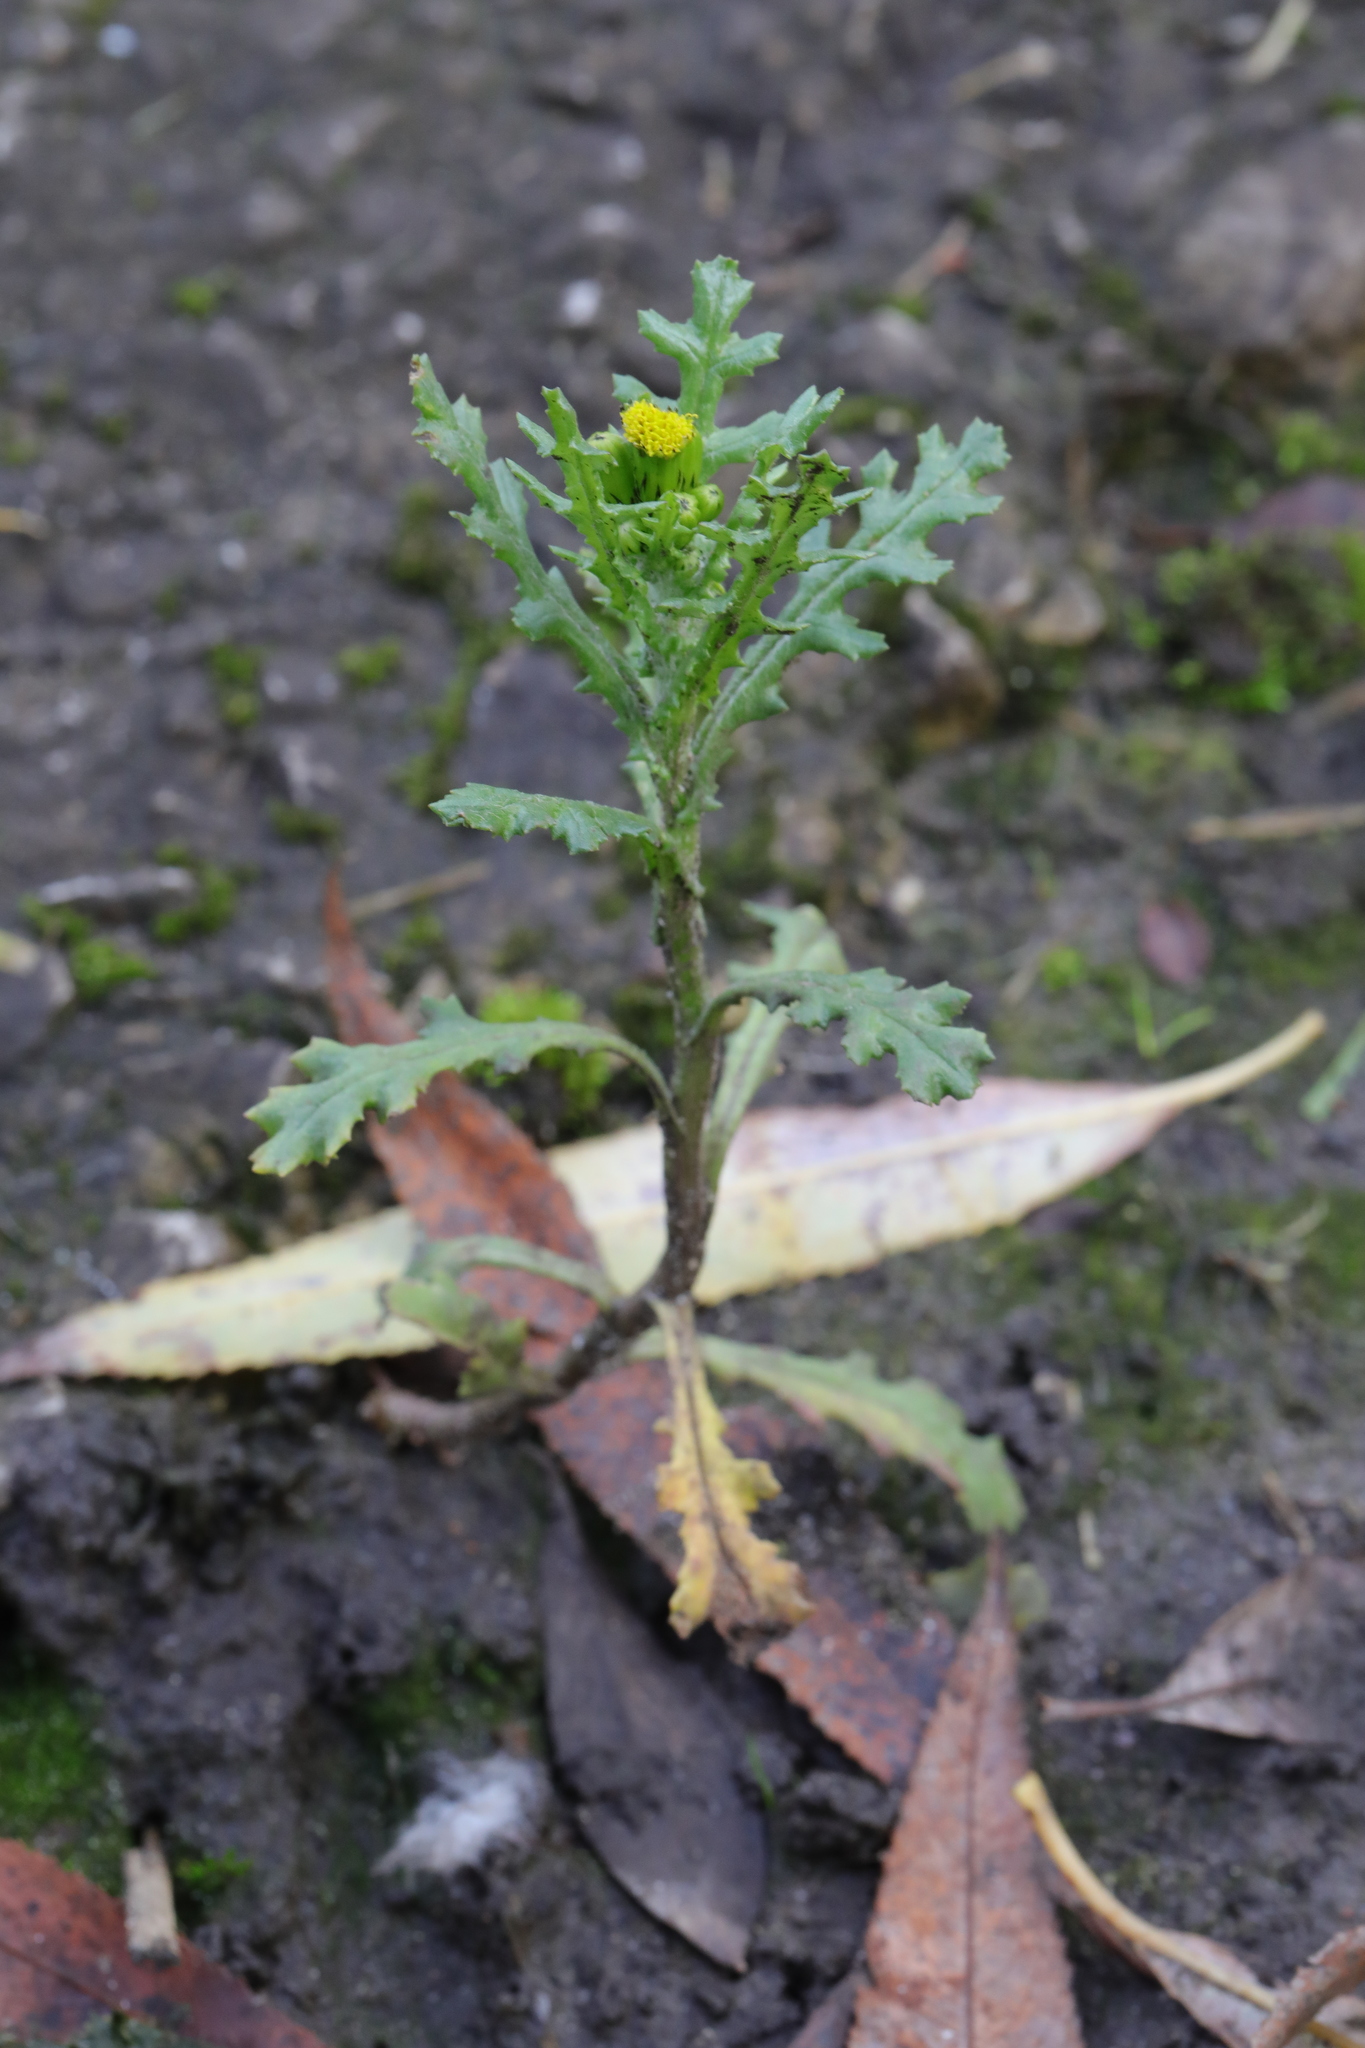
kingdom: Plantae
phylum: Tracheophyta
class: Magnoliopsida
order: Asterales
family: Asteraceae
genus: Senecio
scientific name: Senecio vulgaris
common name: Old-man-in-the-spring
